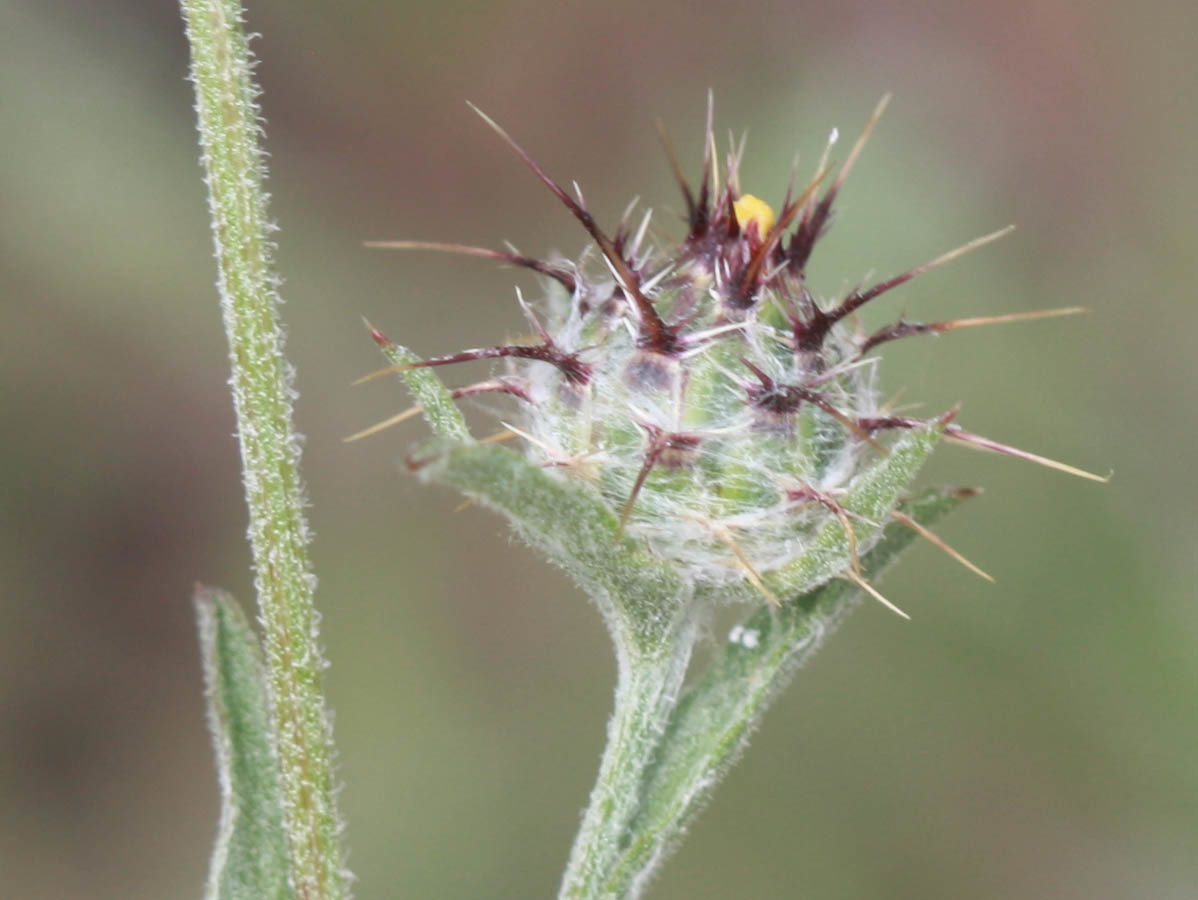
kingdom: Plantae
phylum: Tracheophyta
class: Magnoliopsida
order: Asterales
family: Asteraceae
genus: Centaurea
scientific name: Centaurea melitensis
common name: Maltese star-thistle
